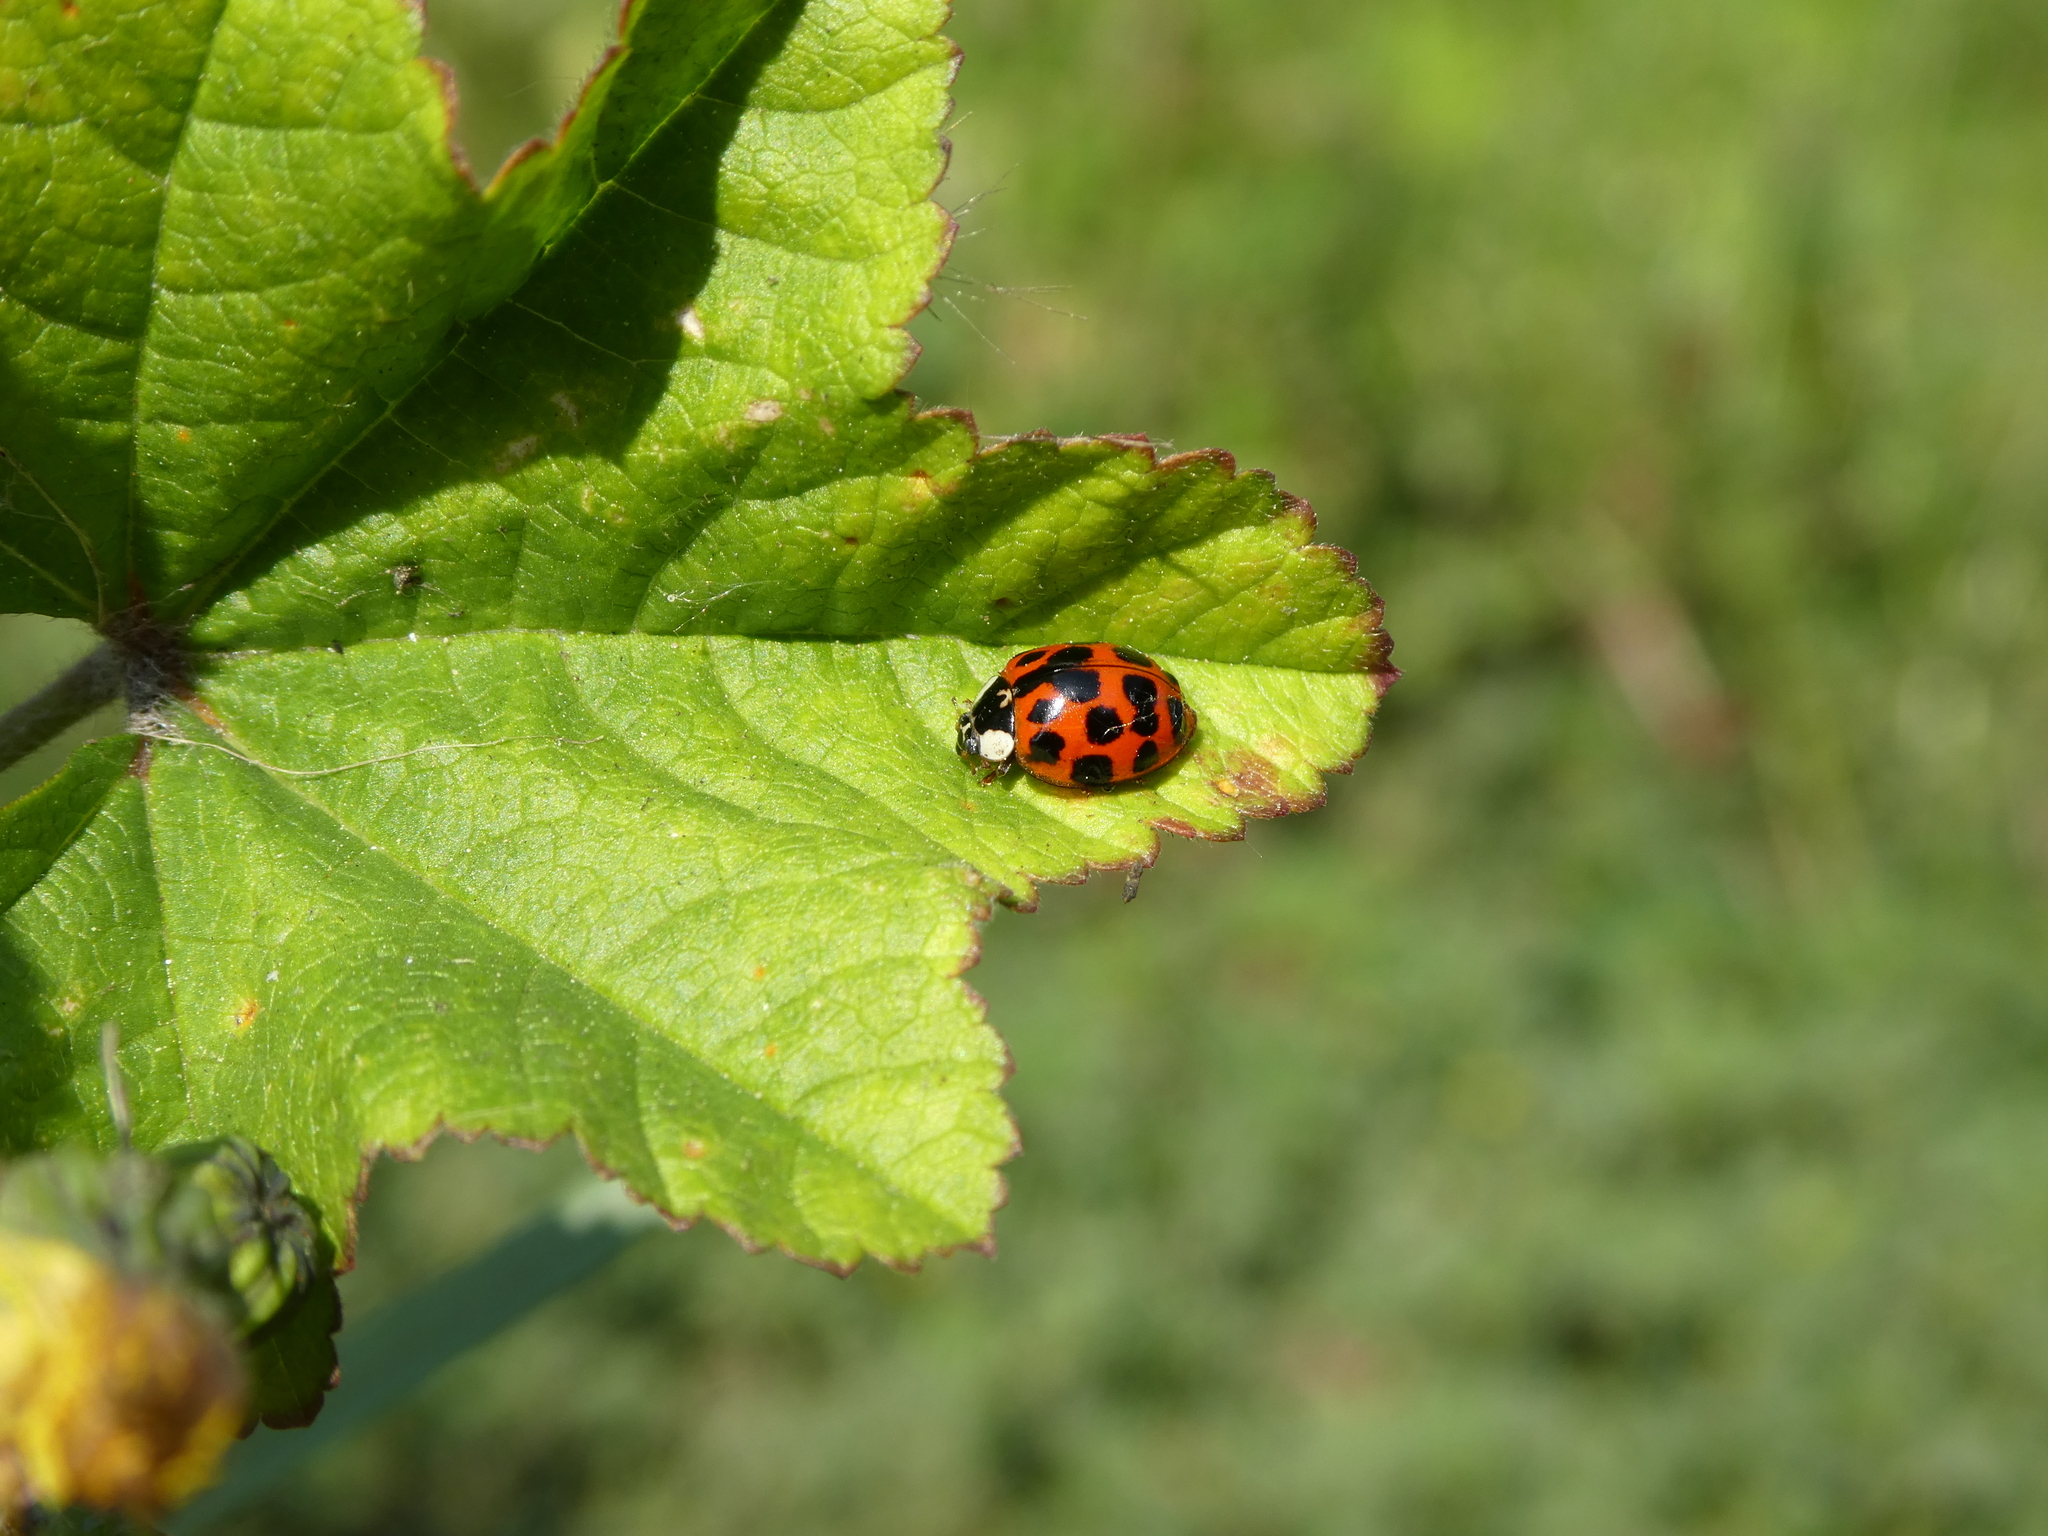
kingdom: Animalia
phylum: Arthropoda
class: Insecta
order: Coleoptera
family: Coccinellidae
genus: Harmonia
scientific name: Harmonia axyridis
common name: Harlequin ladybird
